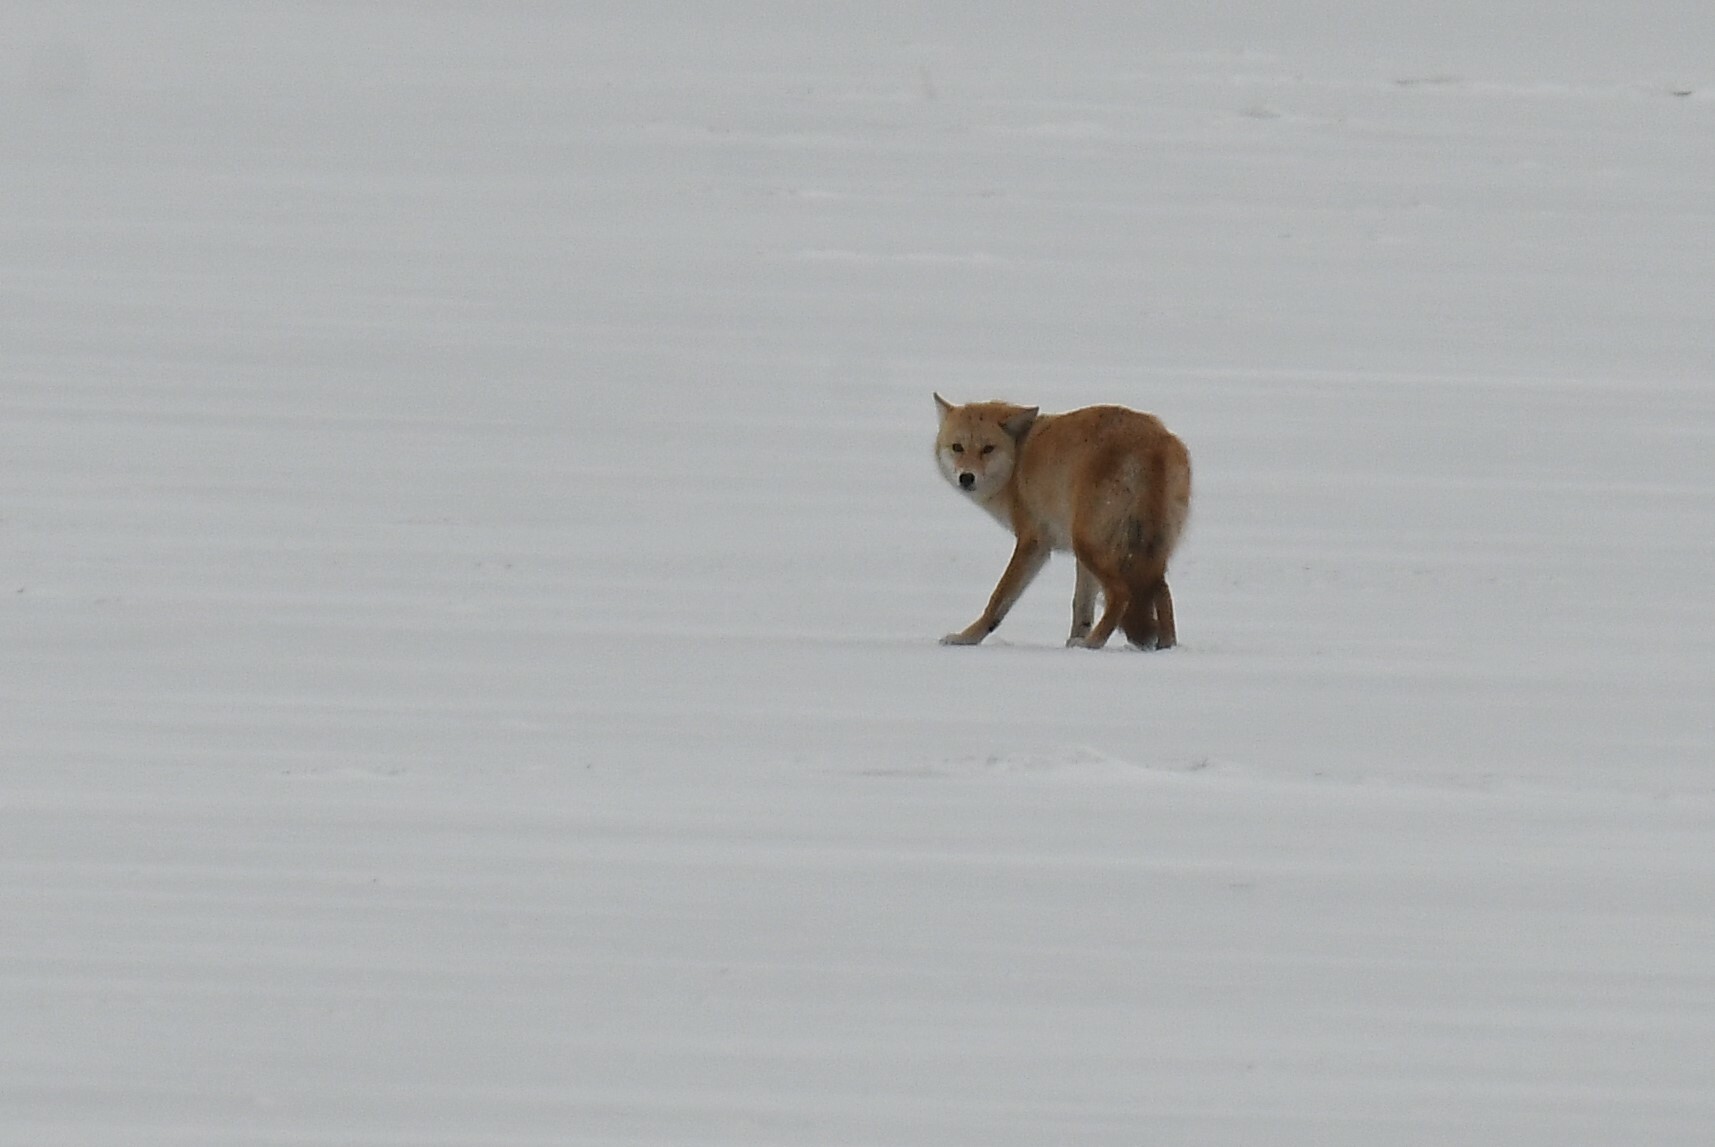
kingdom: Animalia
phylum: Chordata
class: Mammalia
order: Carnivora
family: Canidae
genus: Canis
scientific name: Canis latrans
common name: Coyote
